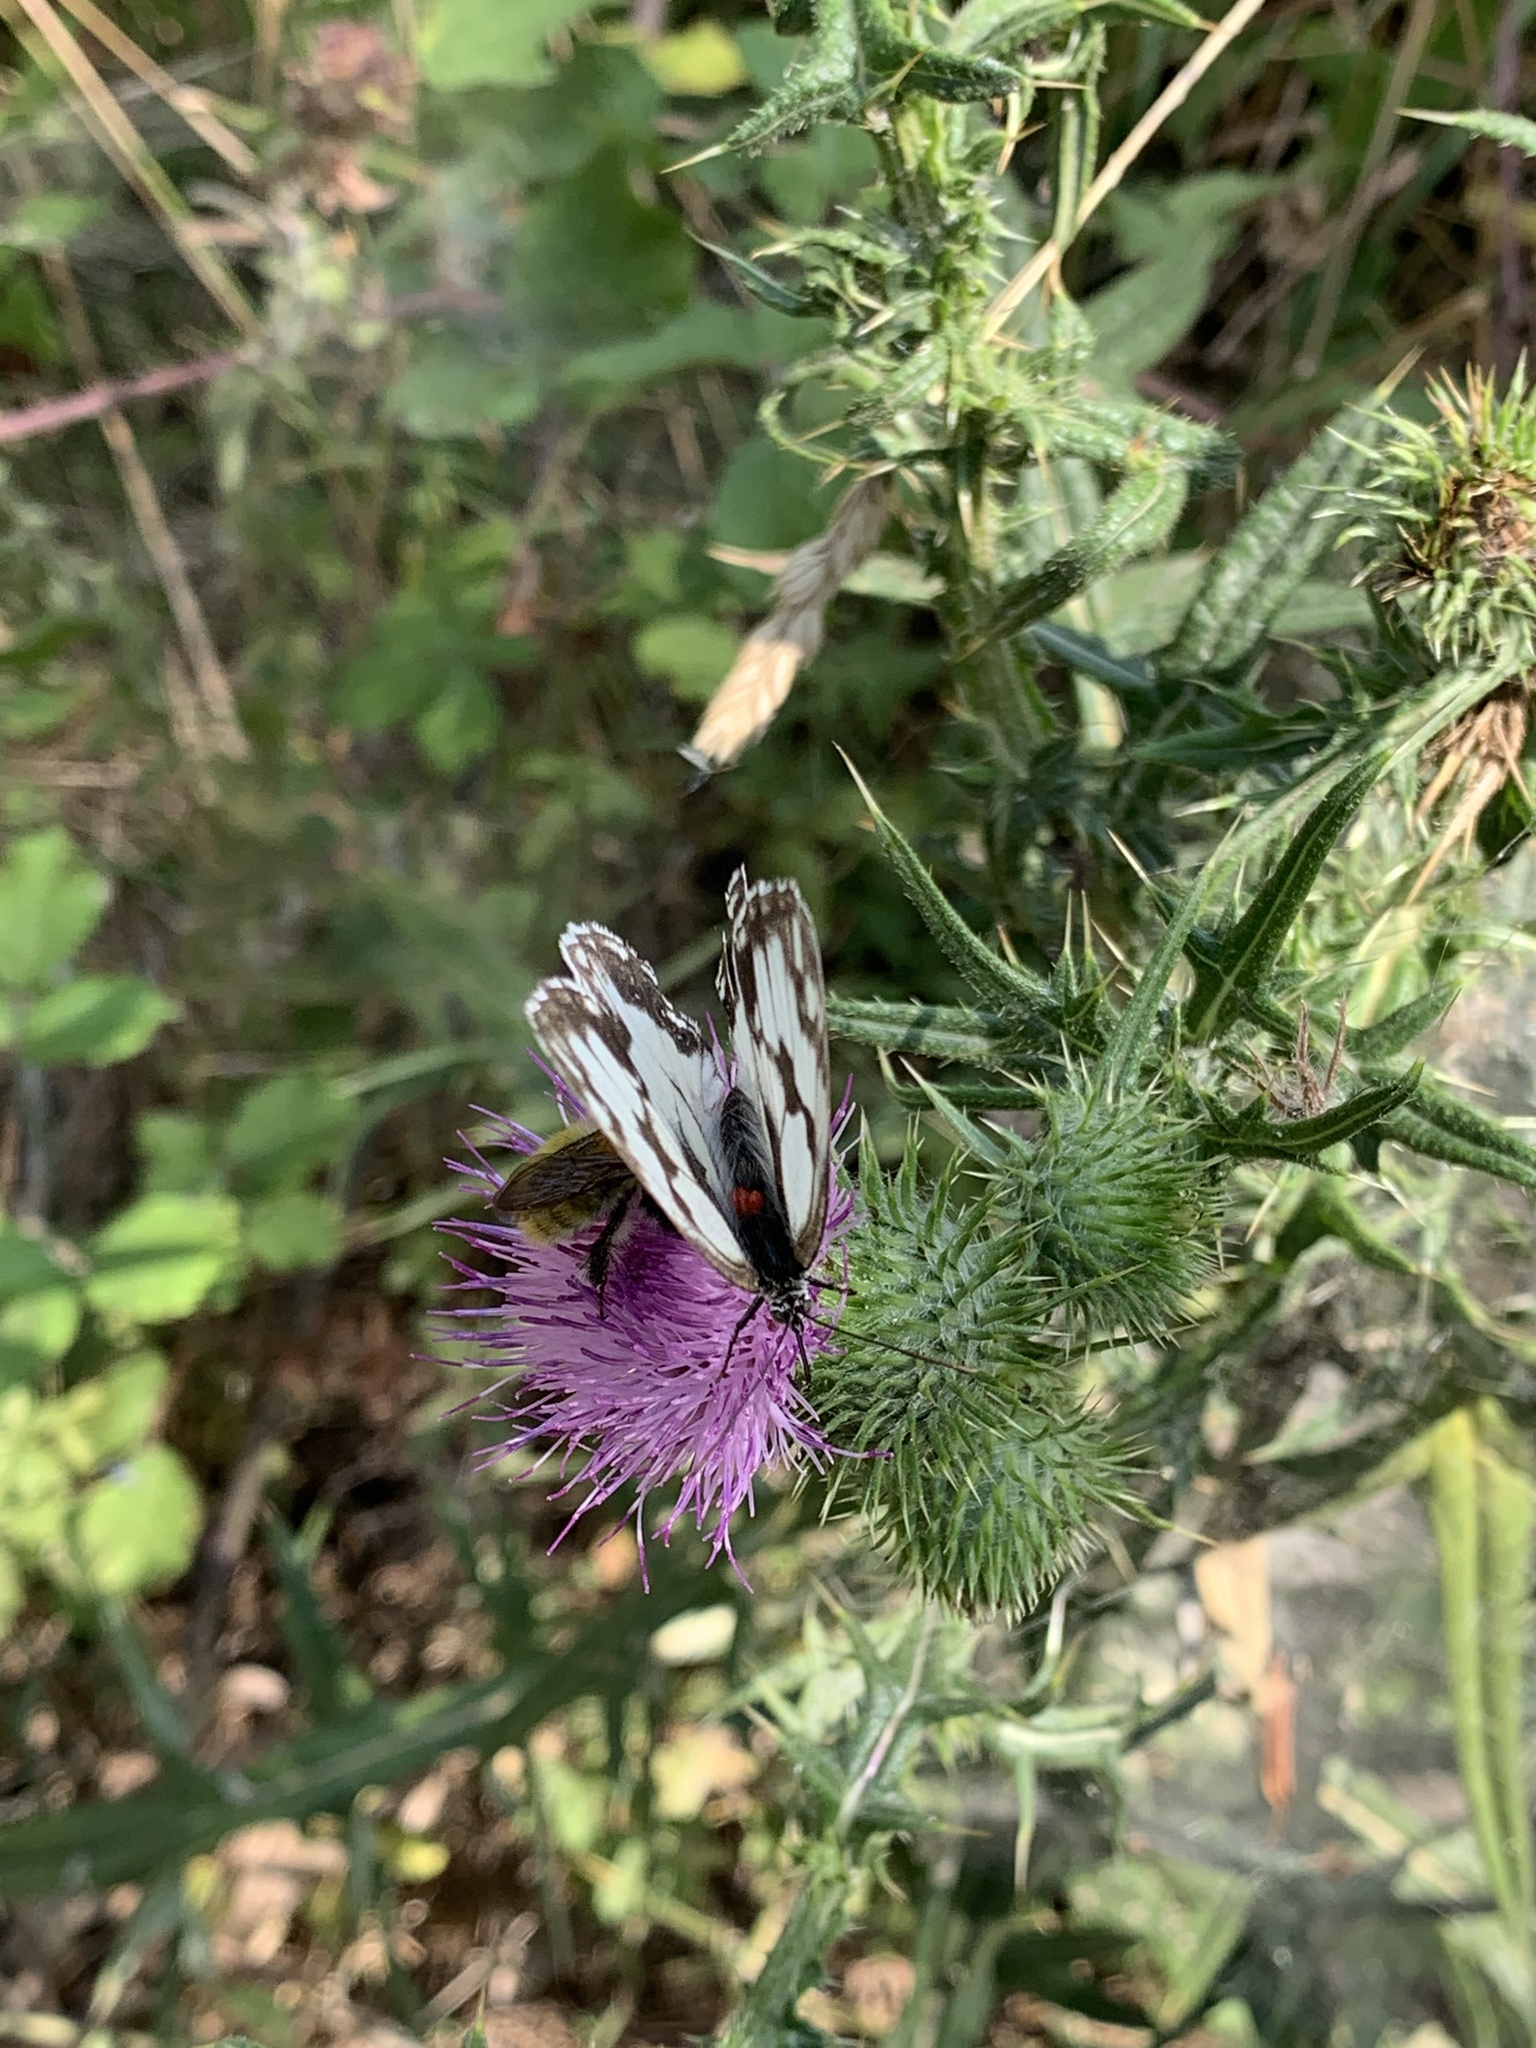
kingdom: Animalia
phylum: Arthropoda
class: Insecta
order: Lepidoptera
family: Nymphalidae
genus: Melanargia
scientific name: Melanargia lachesis
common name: Iberian marbled white
